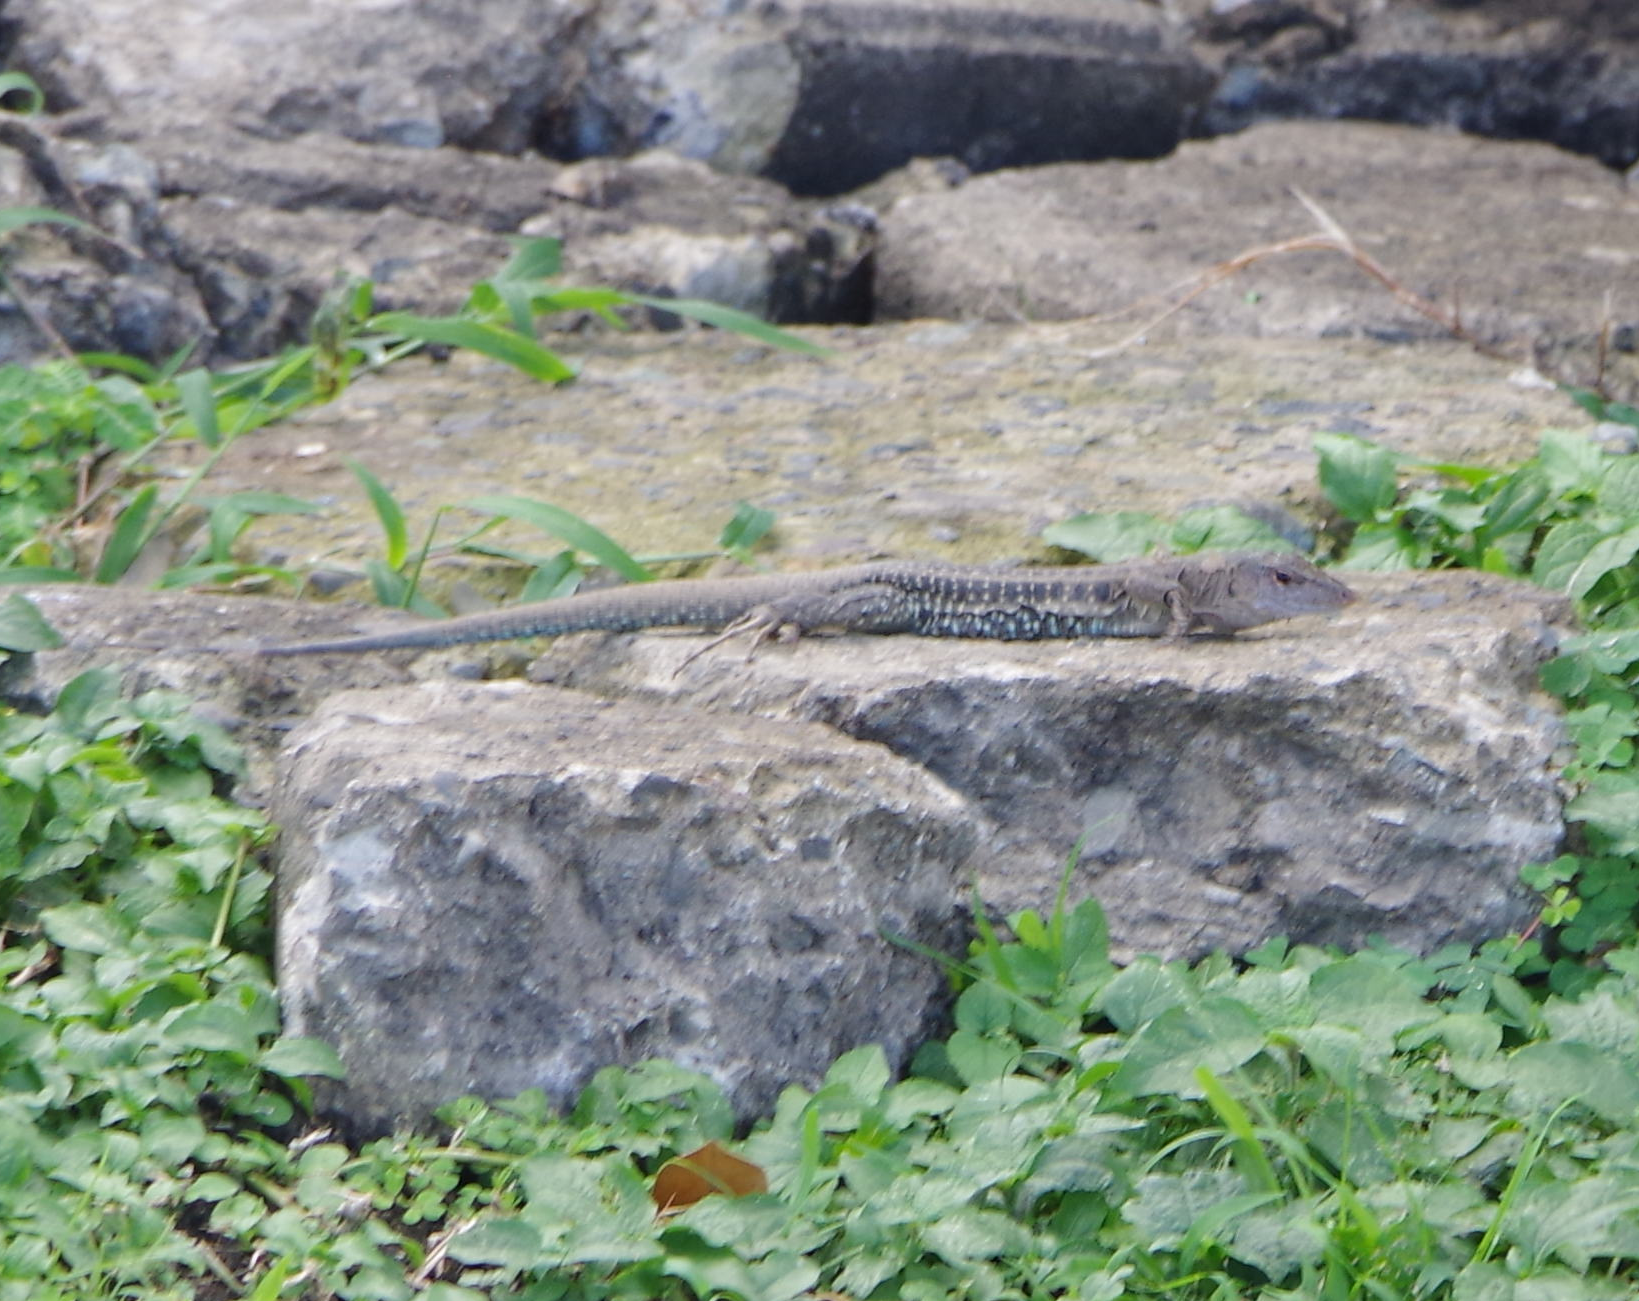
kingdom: Animalia
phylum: Chordata
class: Squamata
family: Teiidae
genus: Pholidoscelis
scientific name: Pholidoscelis exsul
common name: Common puerto rican ameiva
